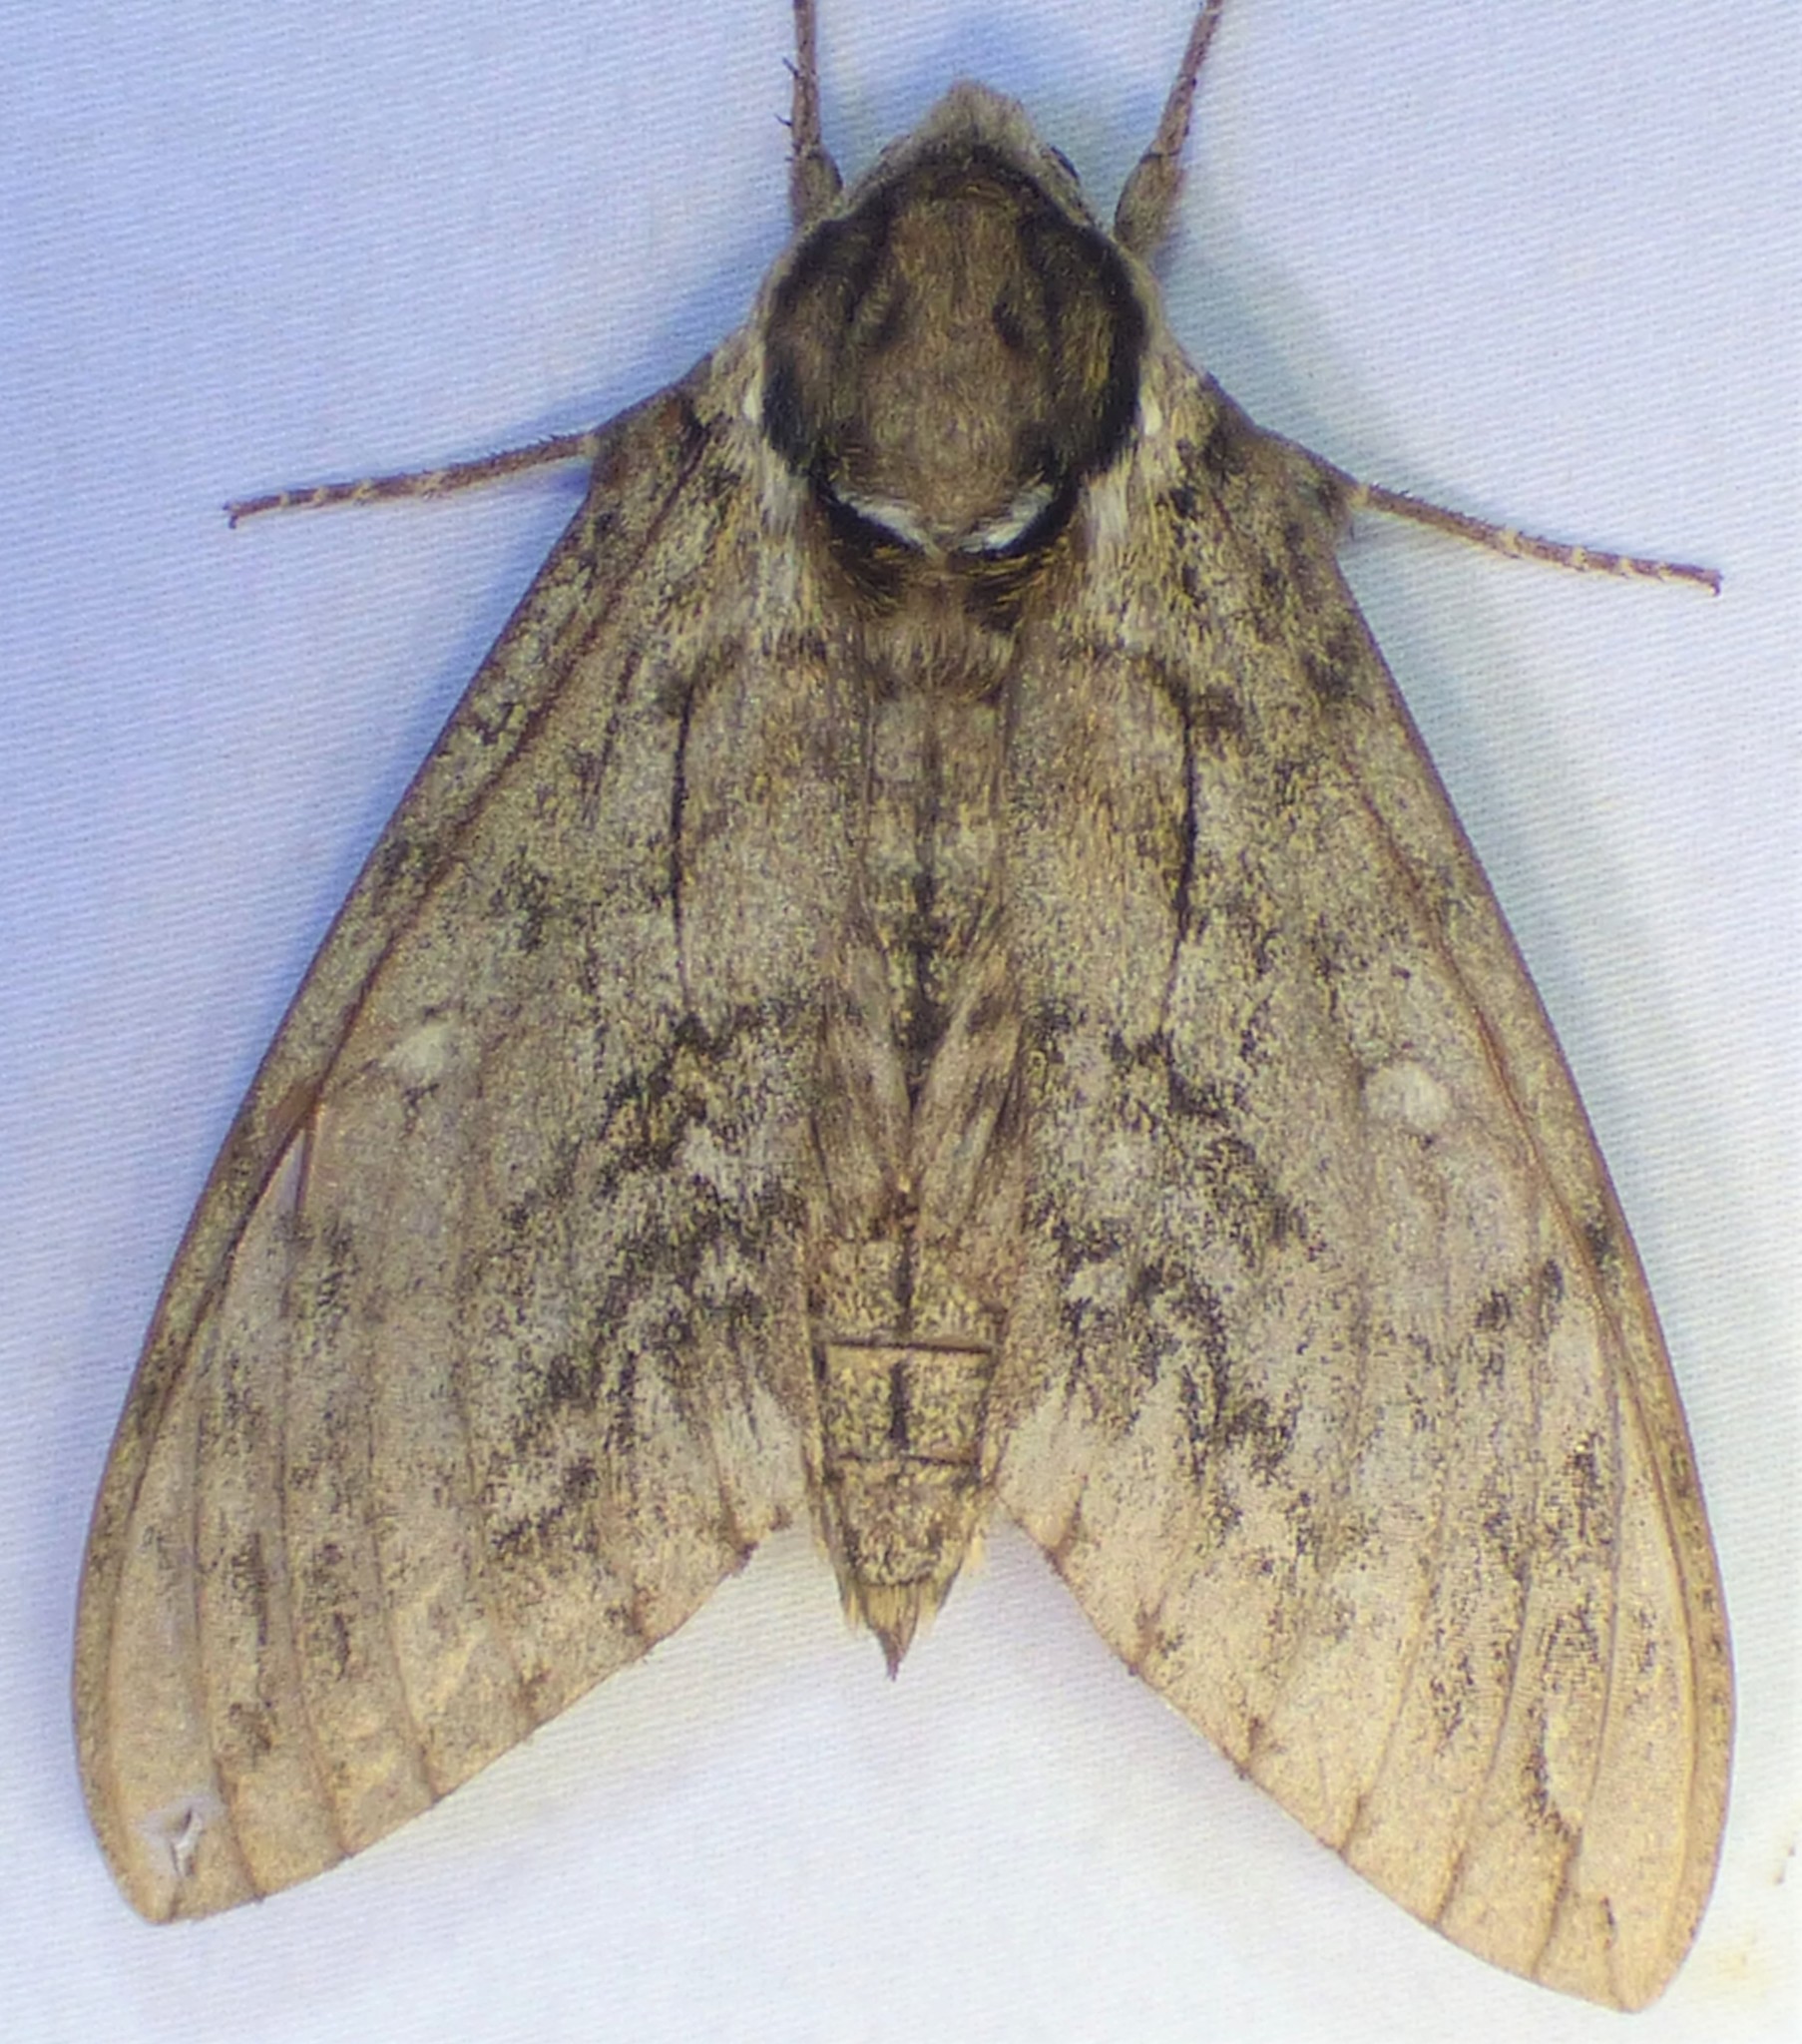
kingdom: Animalia
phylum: Arthropoda
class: Insecta
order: Lepidoptera
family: Sphingidae
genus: Ceratomia
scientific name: Ceratomia undulosa
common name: Waved sphinx
